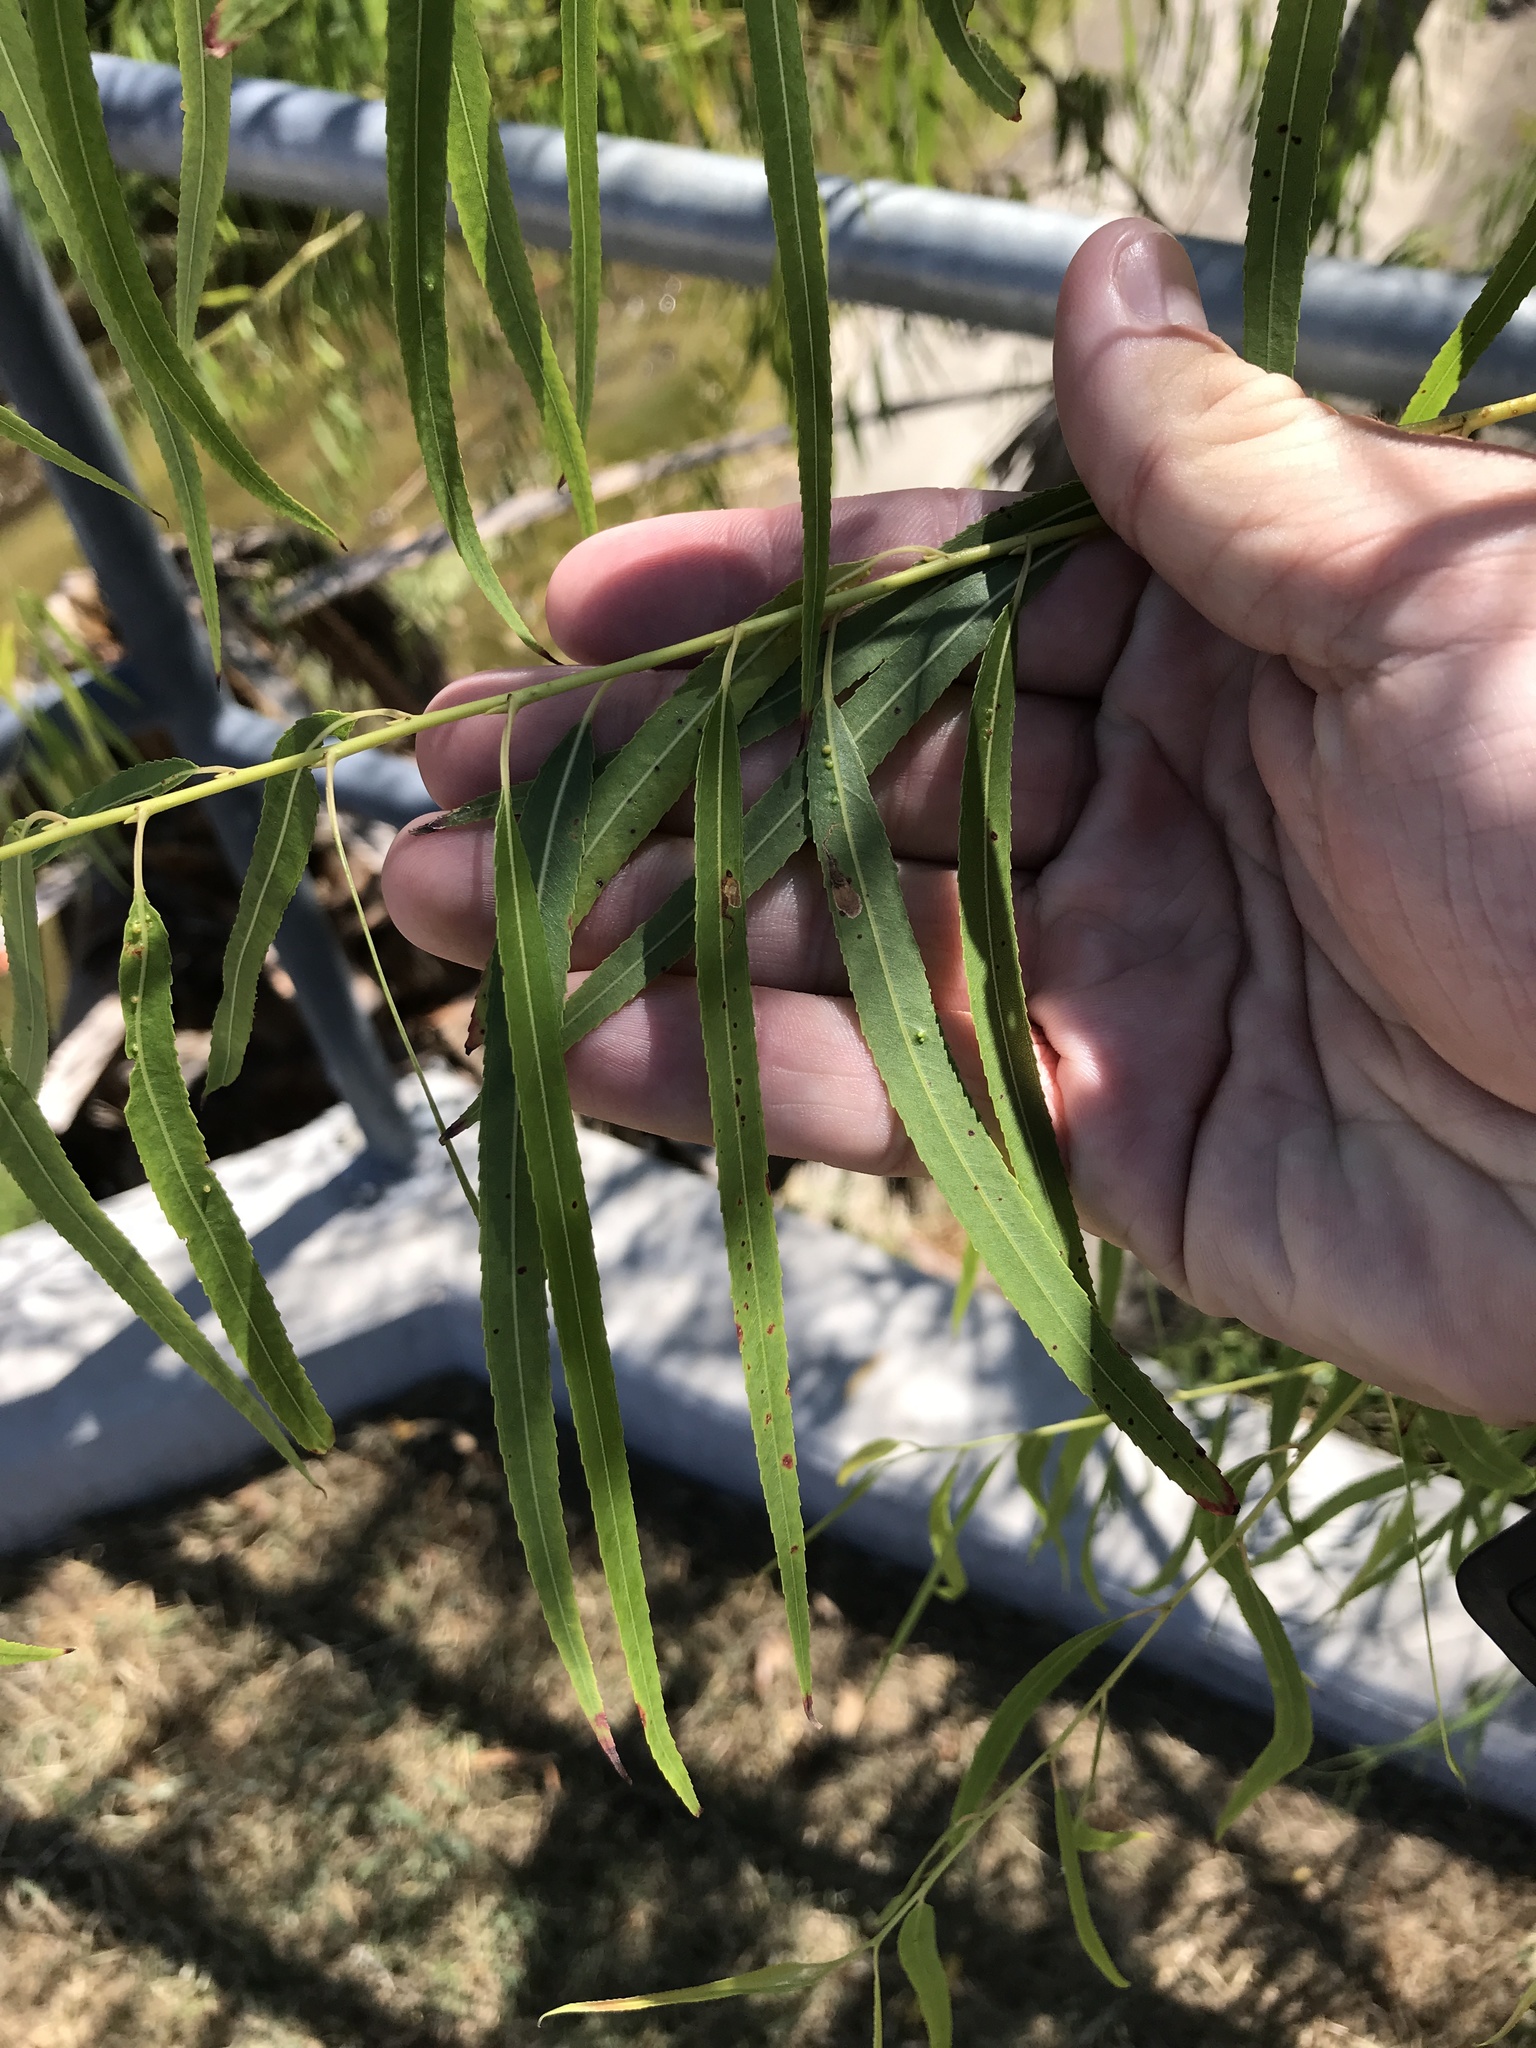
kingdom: Plantae
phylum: Tracheophyta
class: Magnoliopsida
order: Malpighiales
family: Salicaceae
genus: Salix
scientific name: Salix nigra
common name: Black willow
